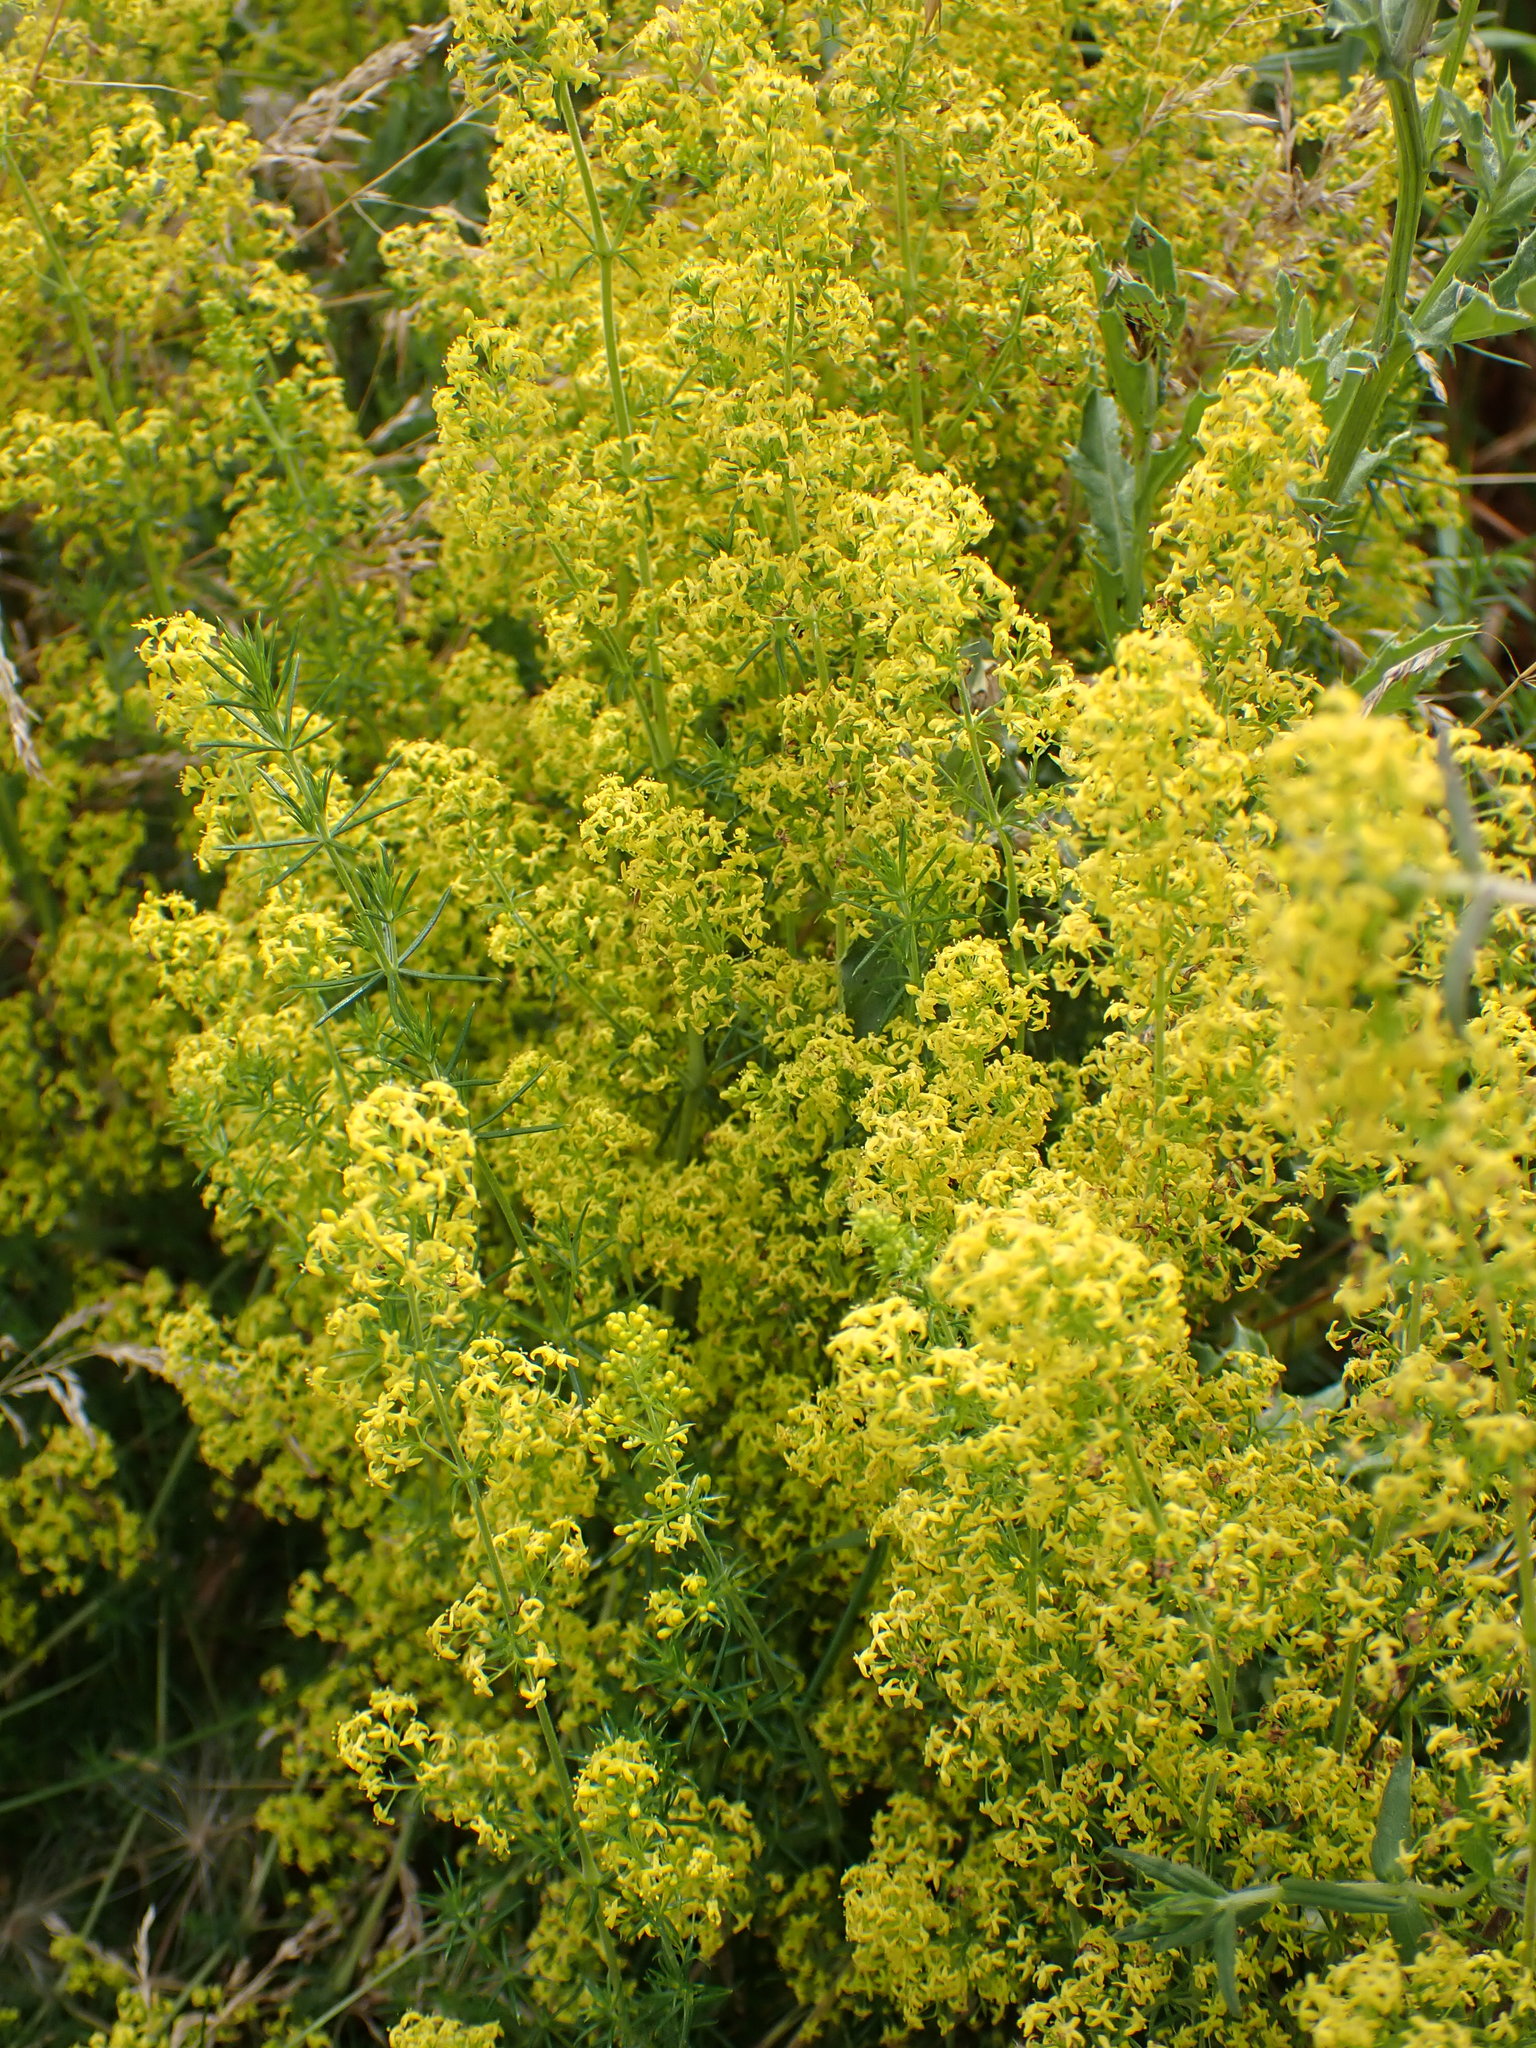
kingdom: Plantae
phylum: Tracheophyta
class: Magnoliopsida
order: Gentianales
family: Rubiaceae
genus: Galium
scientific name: Galium verum
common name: Lady's bedstraw
